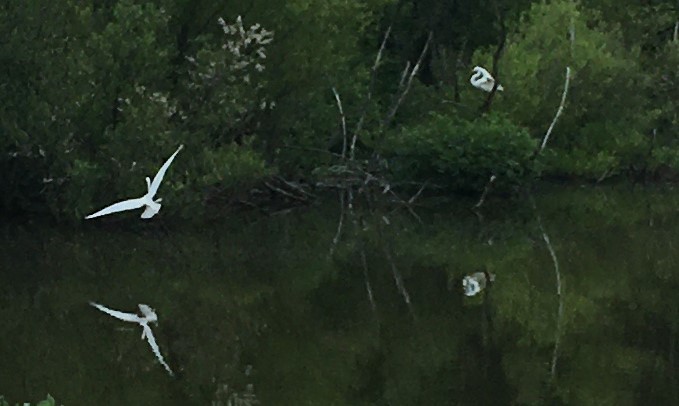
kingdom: Animalia
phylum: Chordata
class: Aves
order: Pelecaniformes
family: Ardeidae
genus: Ardea
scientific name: Ardea alba
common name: Great egret
